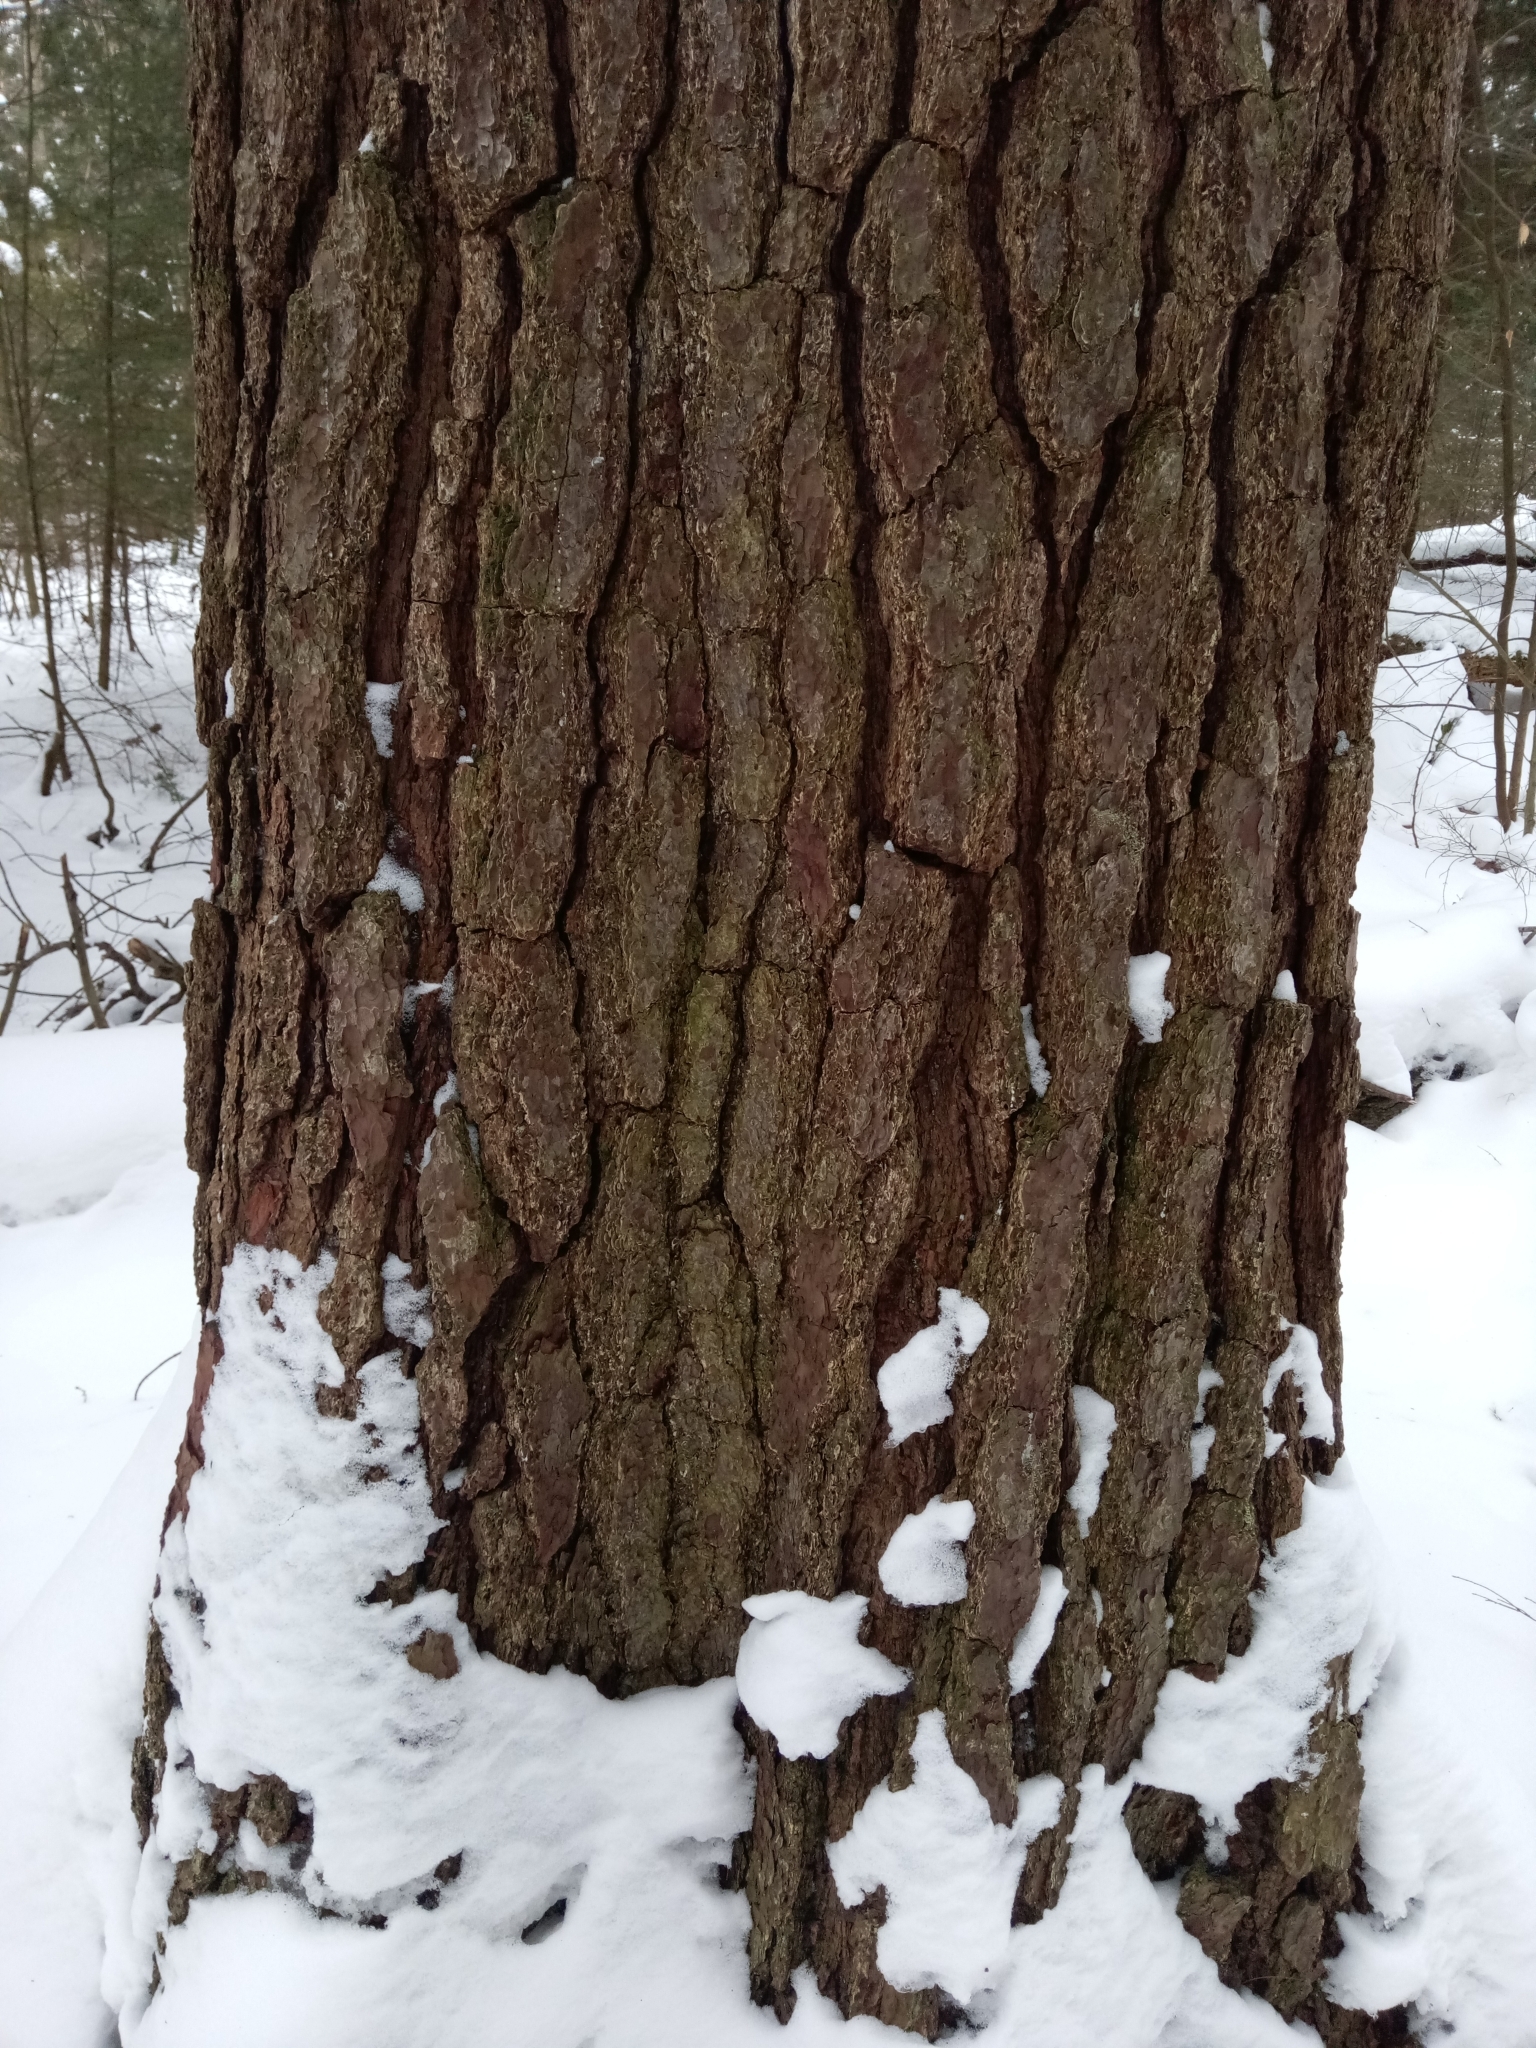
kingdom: Plantae
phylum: Tracheophyta
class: Pinopsida
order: Pinales
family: Pinaceae
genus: Pinus
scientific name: Pinus strobus
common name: Weymouth pine
